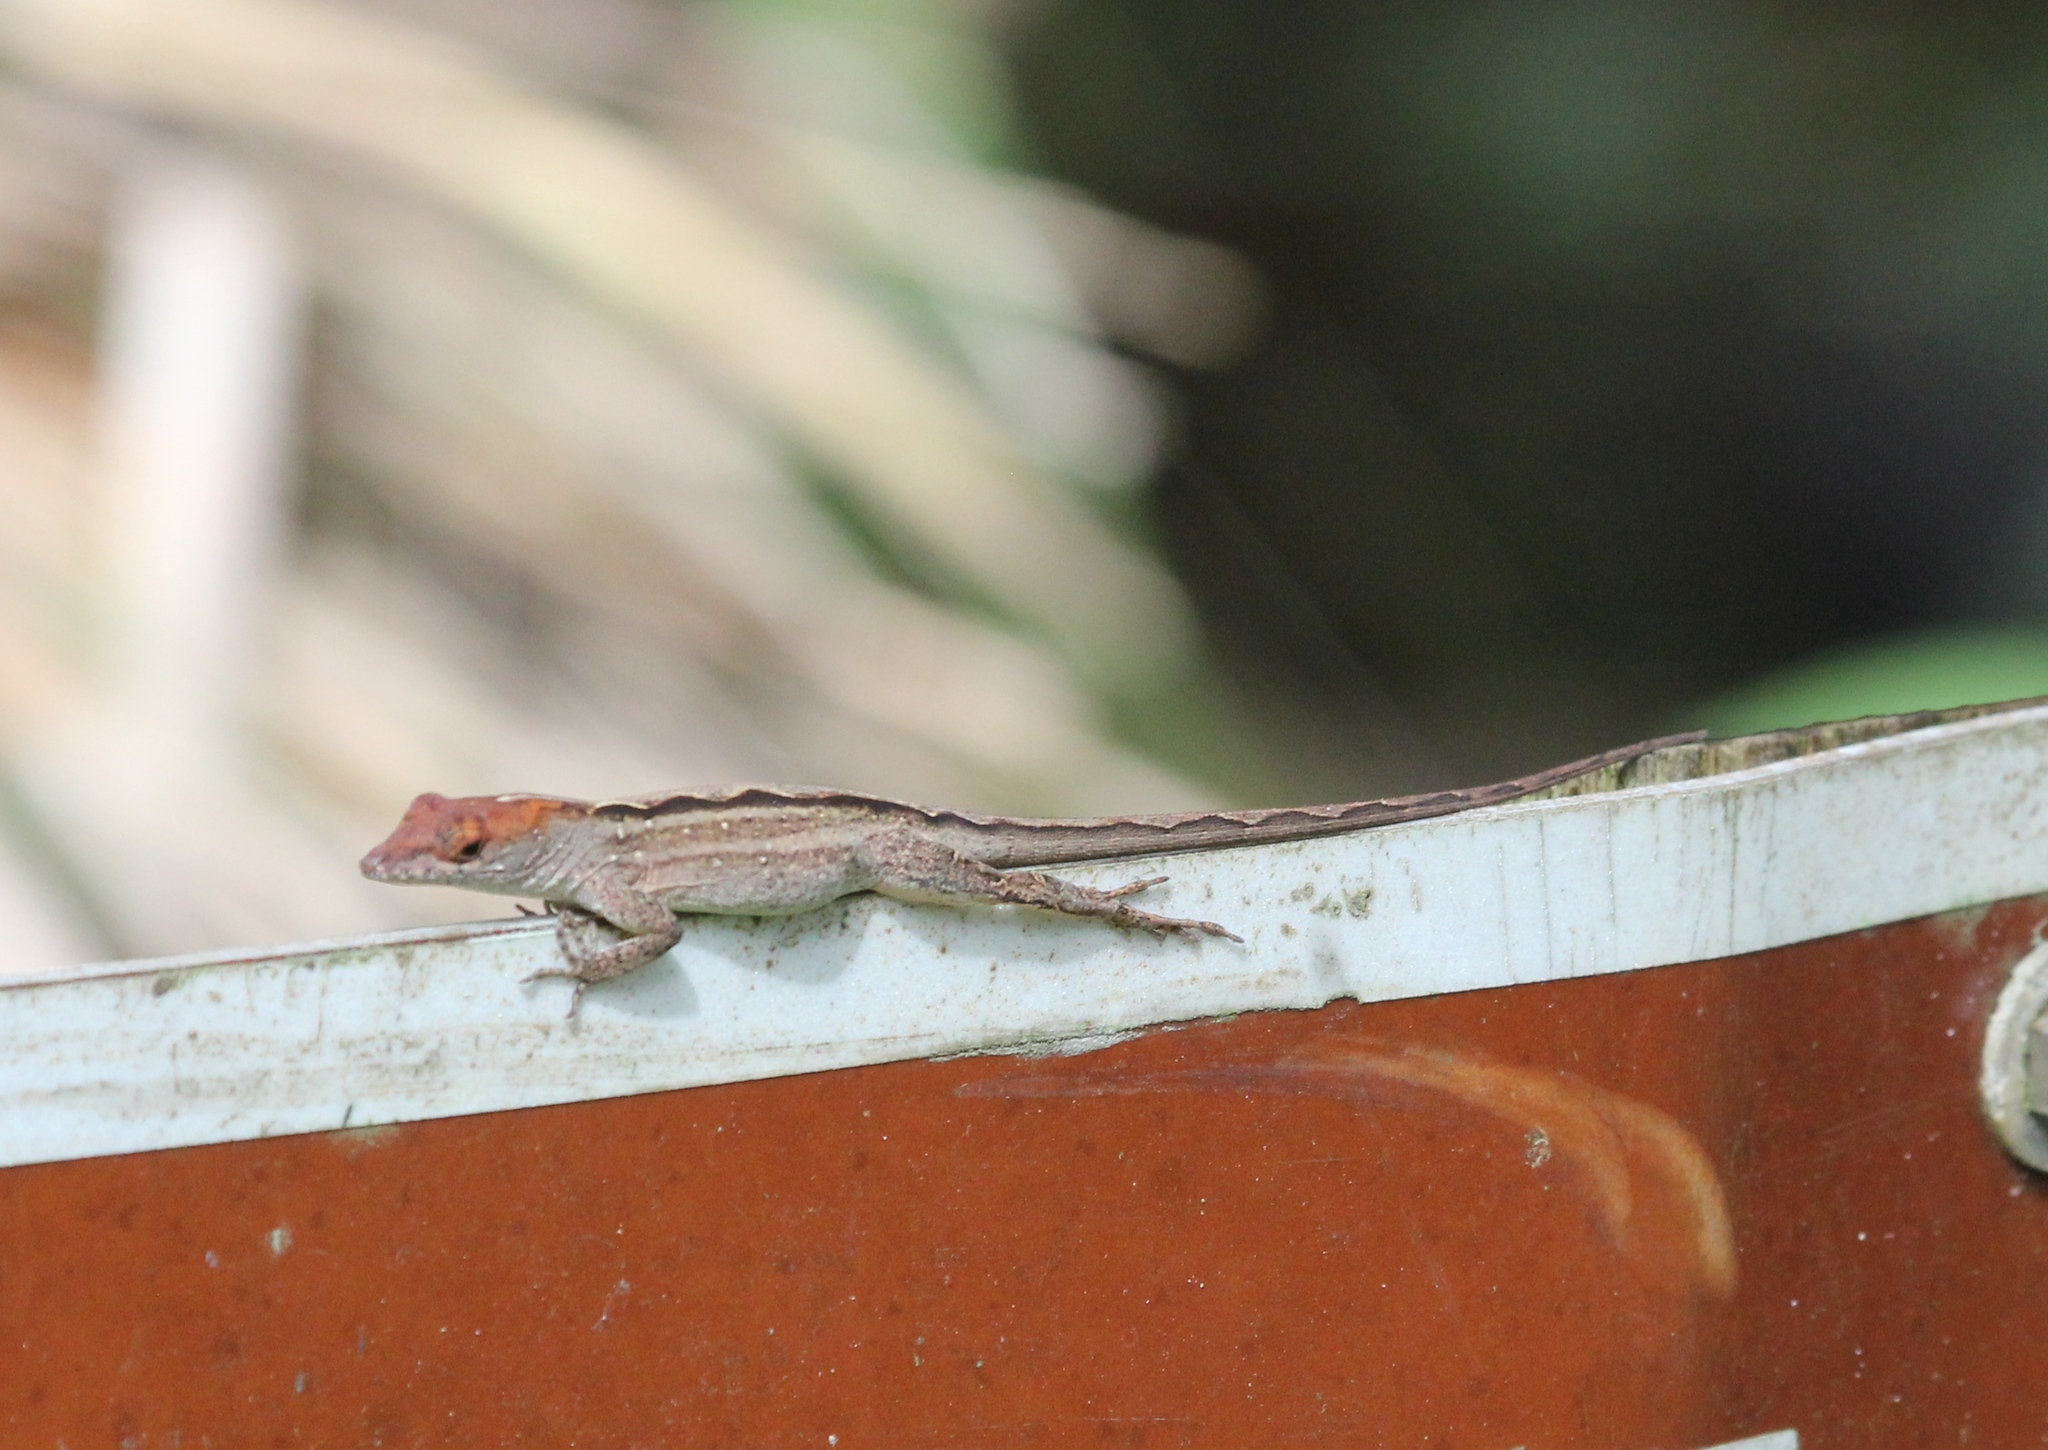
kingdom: Animalia
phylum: Chordata
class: Squamata
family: Dactyloidae
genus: Anolis
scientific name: Anolis sagrei
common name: Brown anole
